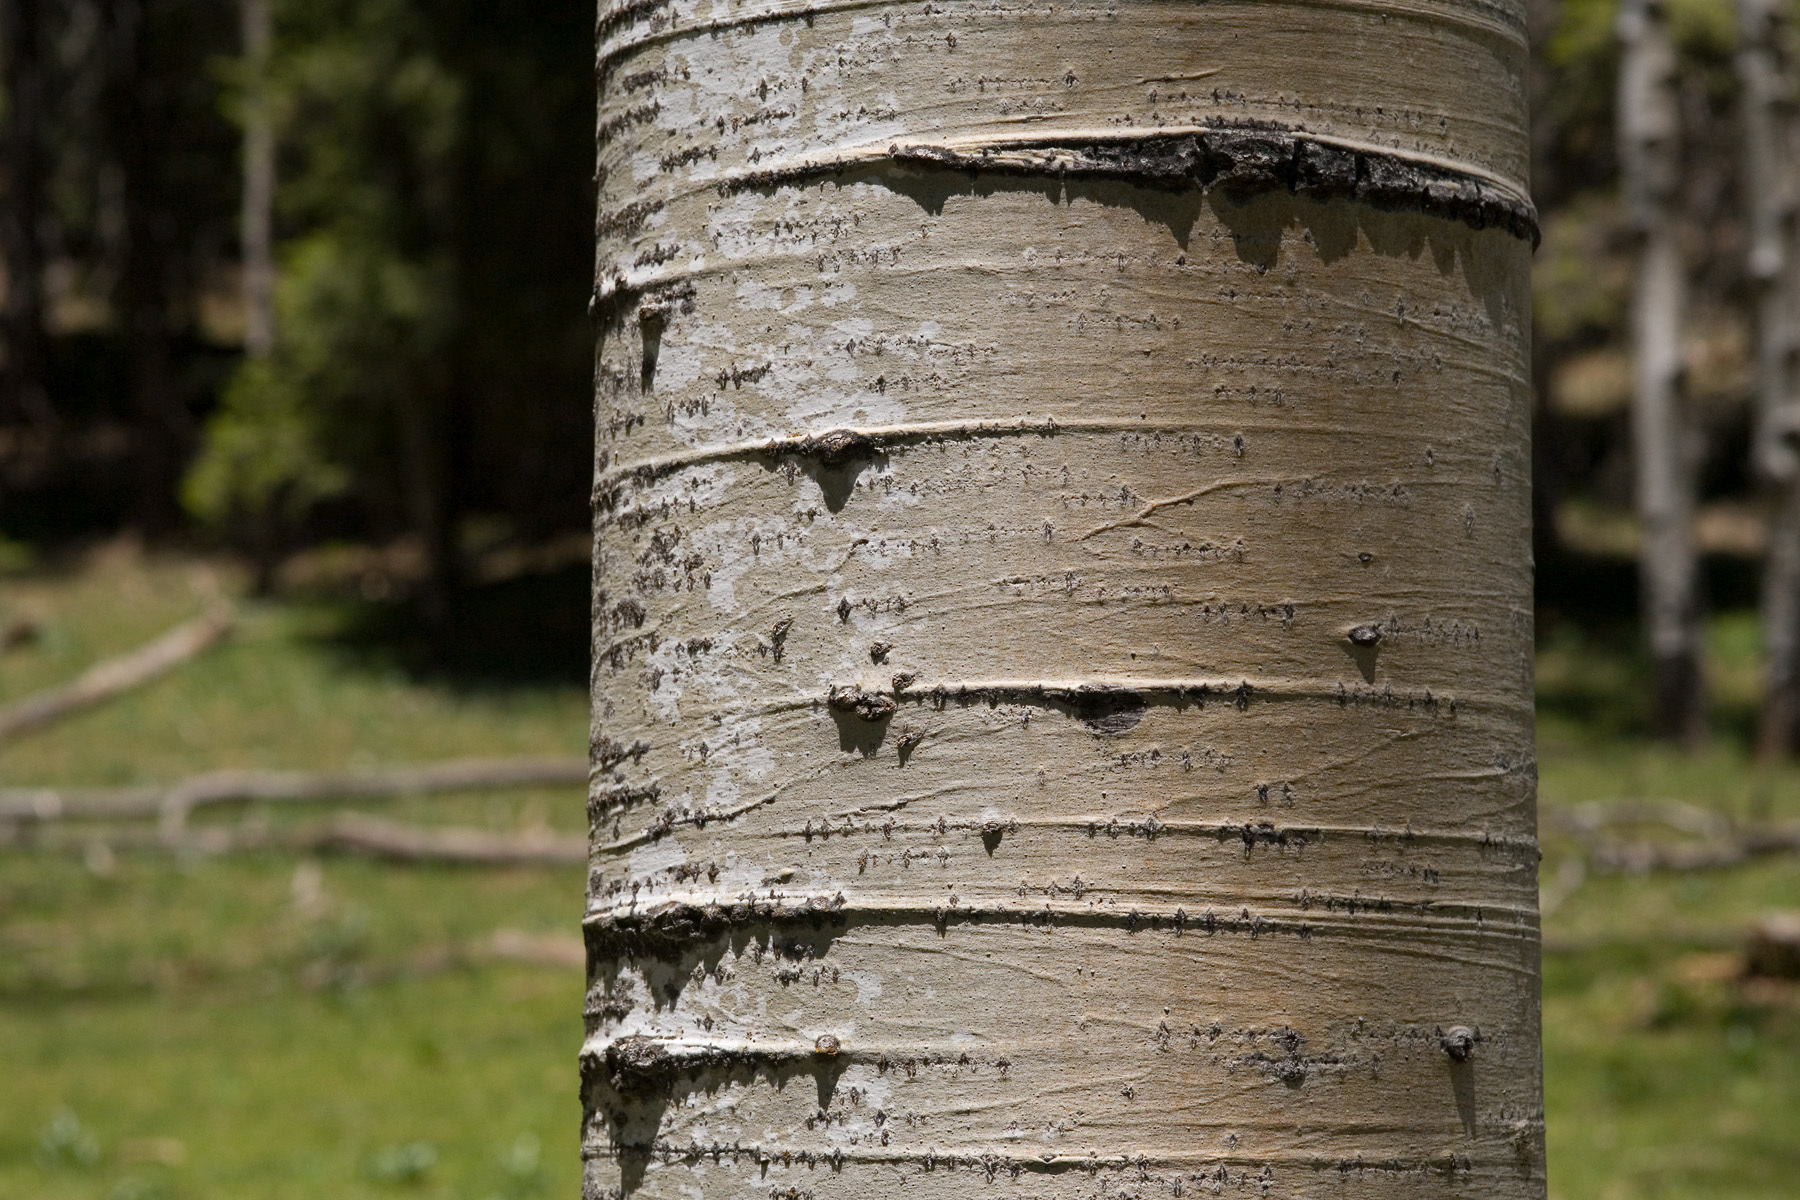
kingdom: Plantae
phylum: Tracheophyta
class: Magnoliopsida
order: Malpighiales
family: Salicaceae
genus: Populus
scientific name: Populus tremuloides
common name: Quaking aspen
